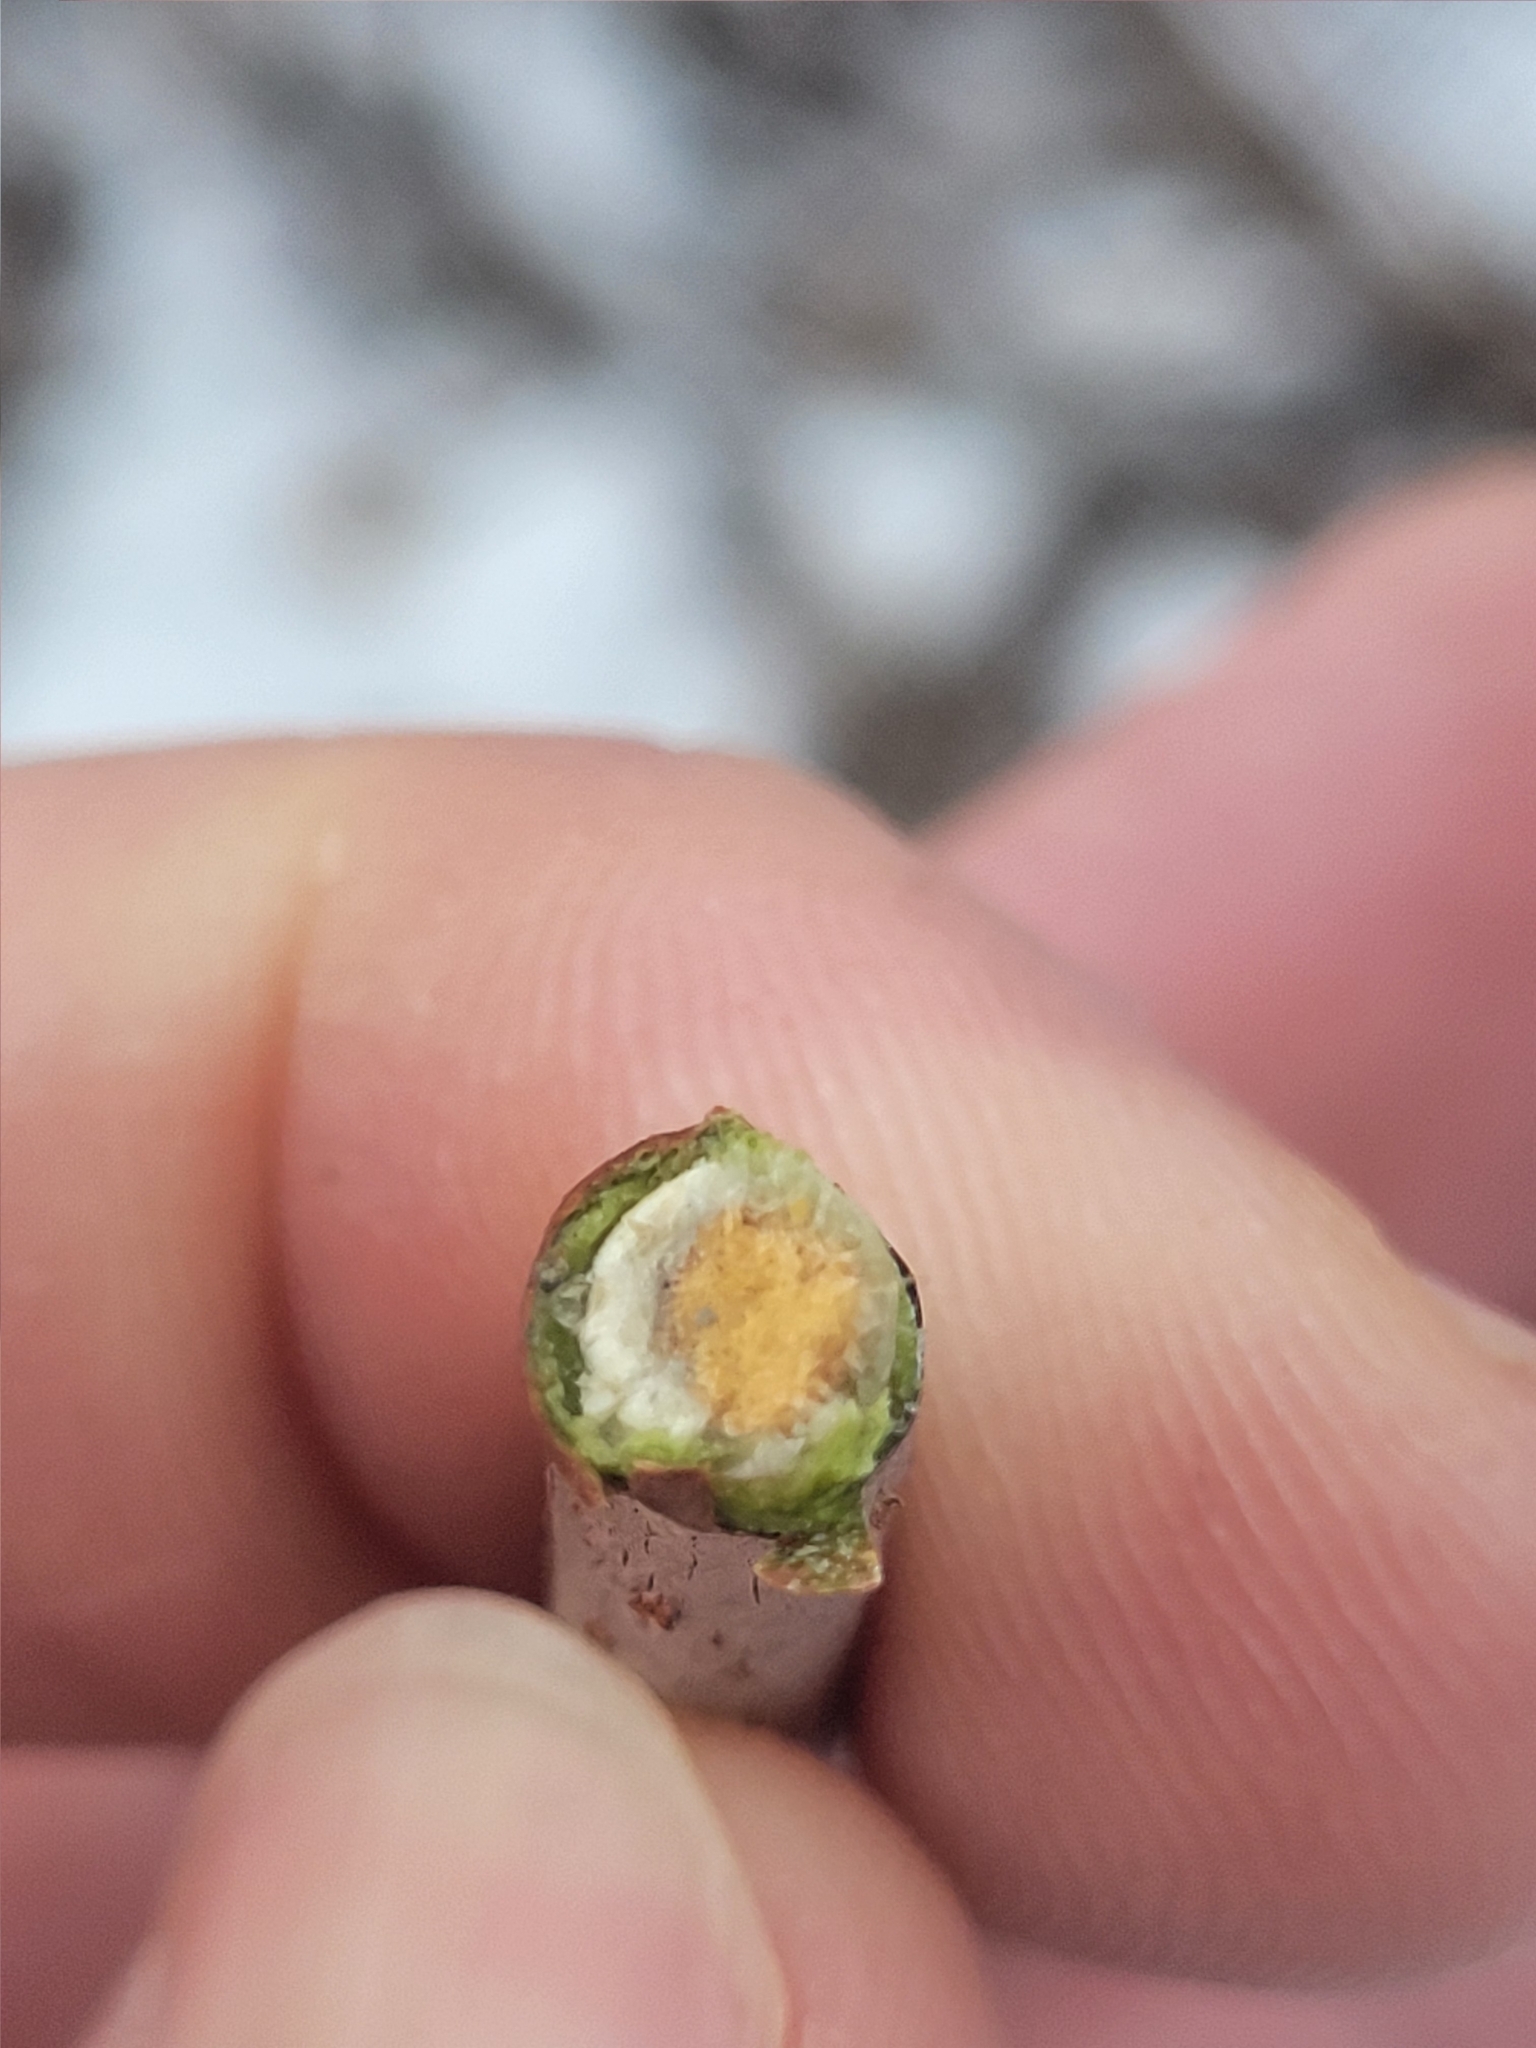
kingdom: Plantae
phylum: Tracheophyta
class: Magnoliopsida
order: Dipsacales
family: Viburnaceae
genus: Sambucus
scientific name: Sambucus racemosa
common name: Red-berried elder
